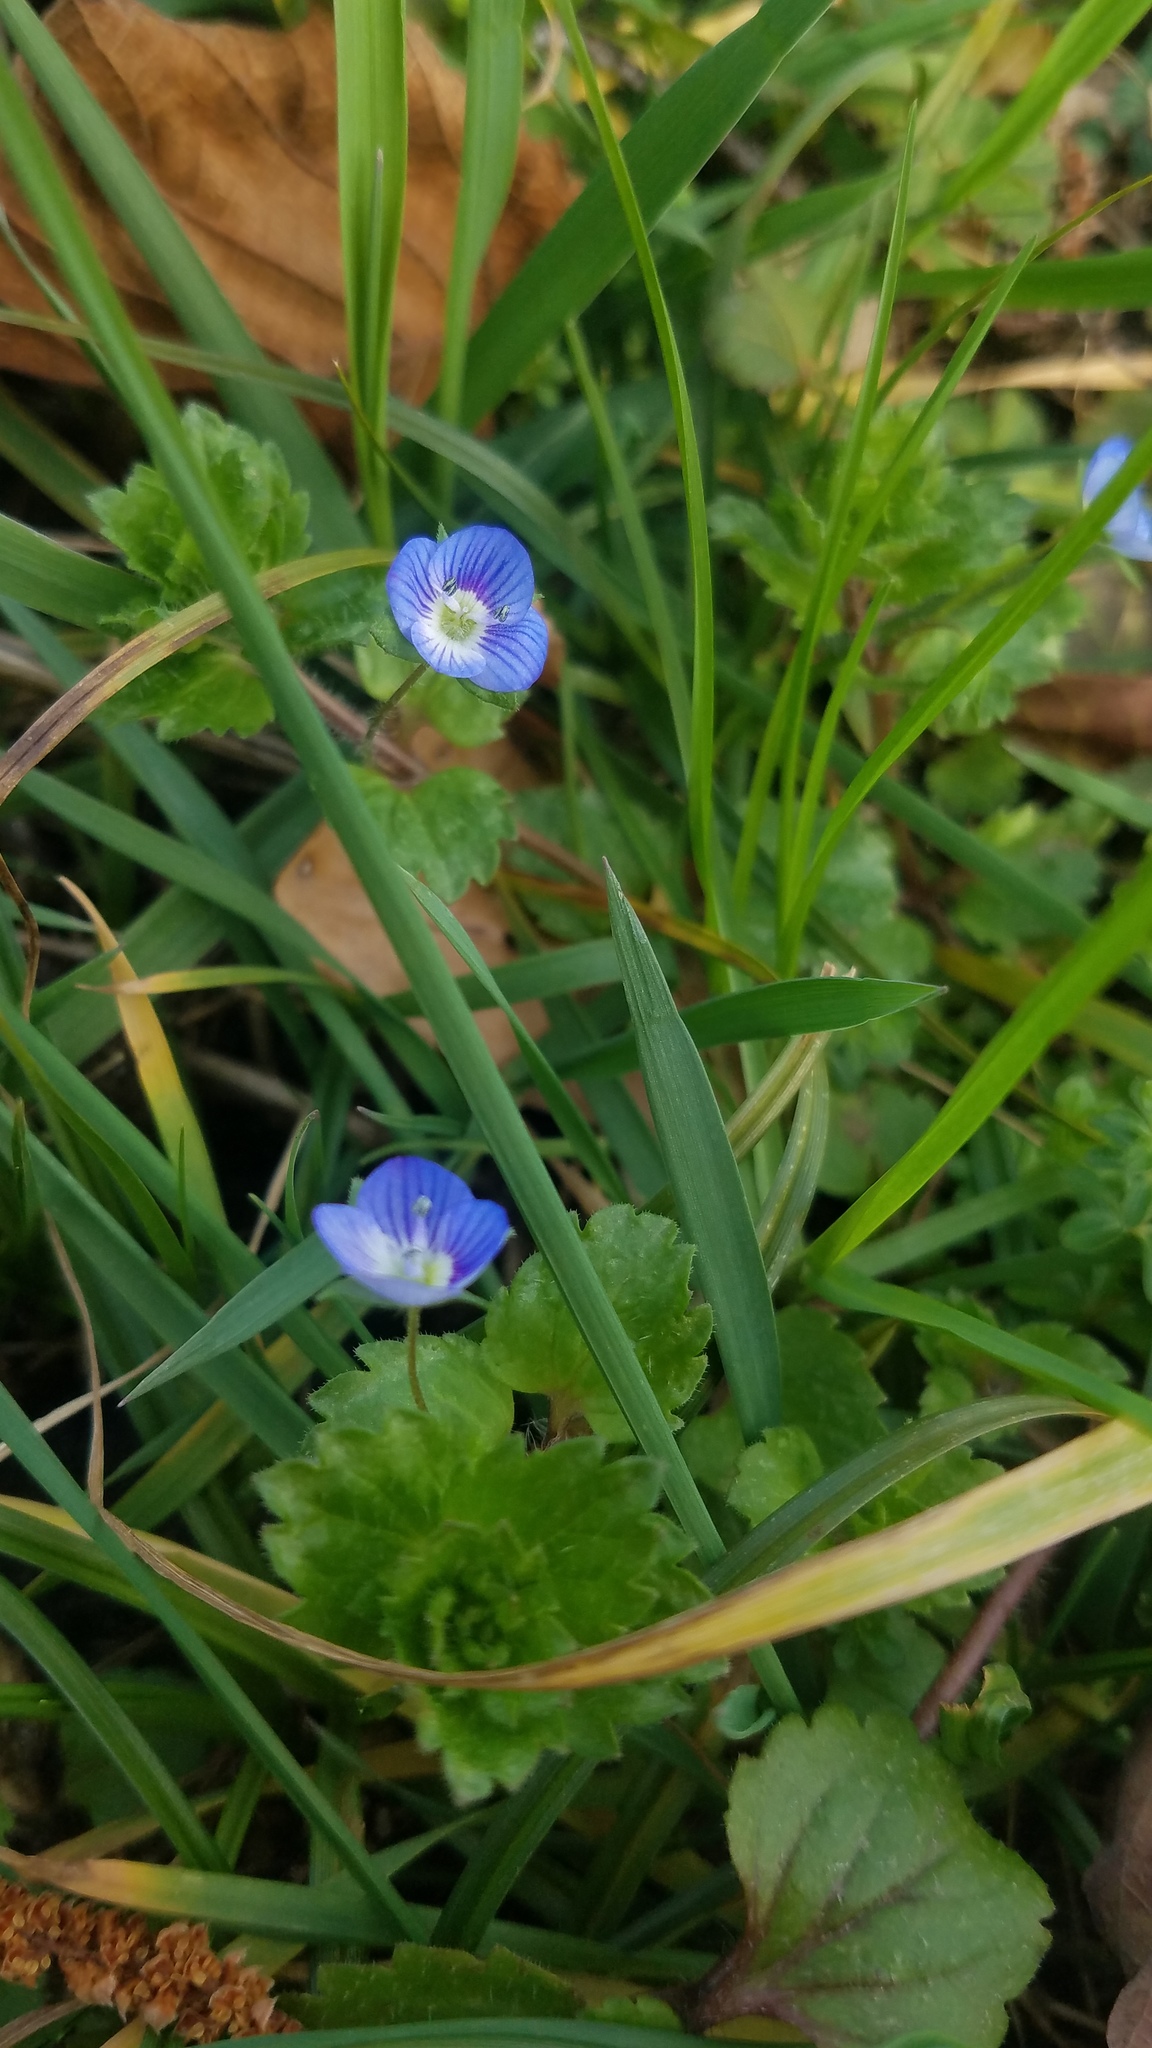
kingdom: Plantae
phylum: Tracheophyta
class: Magnoliopsida
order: Lamiales
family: Plantaginaceae
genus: Veronica
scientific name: Veronica persica
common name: Common field-speedwell
